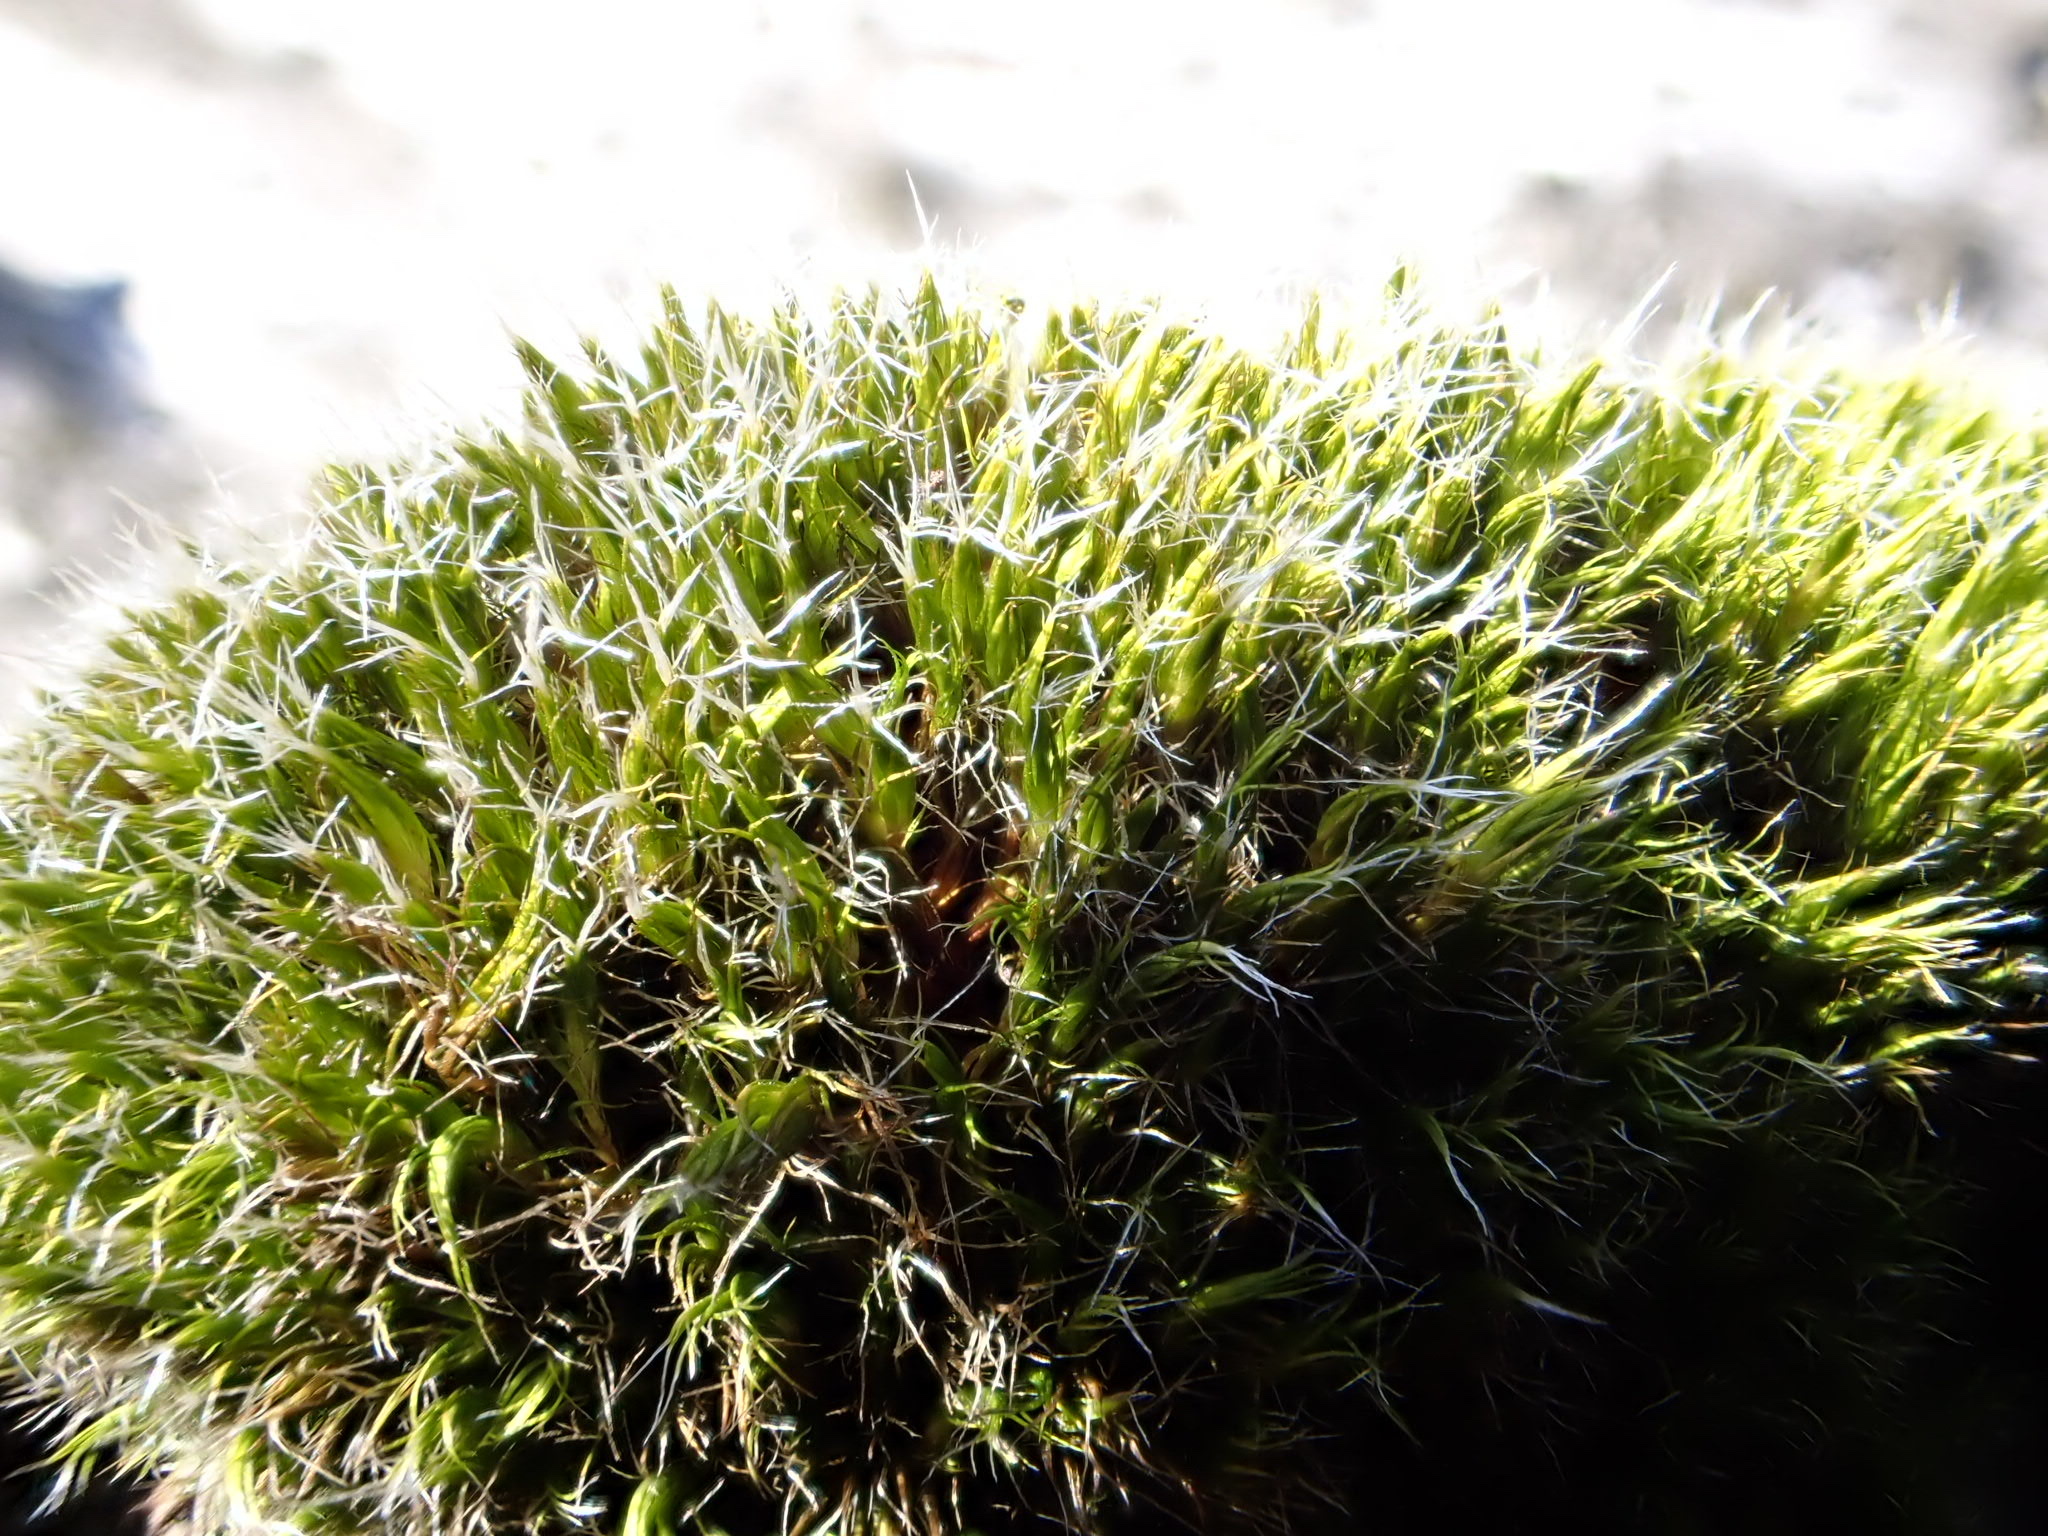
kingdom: Plantae
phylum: Bryophyta
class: Bryopsida
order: Dicranales
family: Leucobryaceae
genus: Campylopus
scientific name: Campylopus introflexus
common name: Heath star moss
